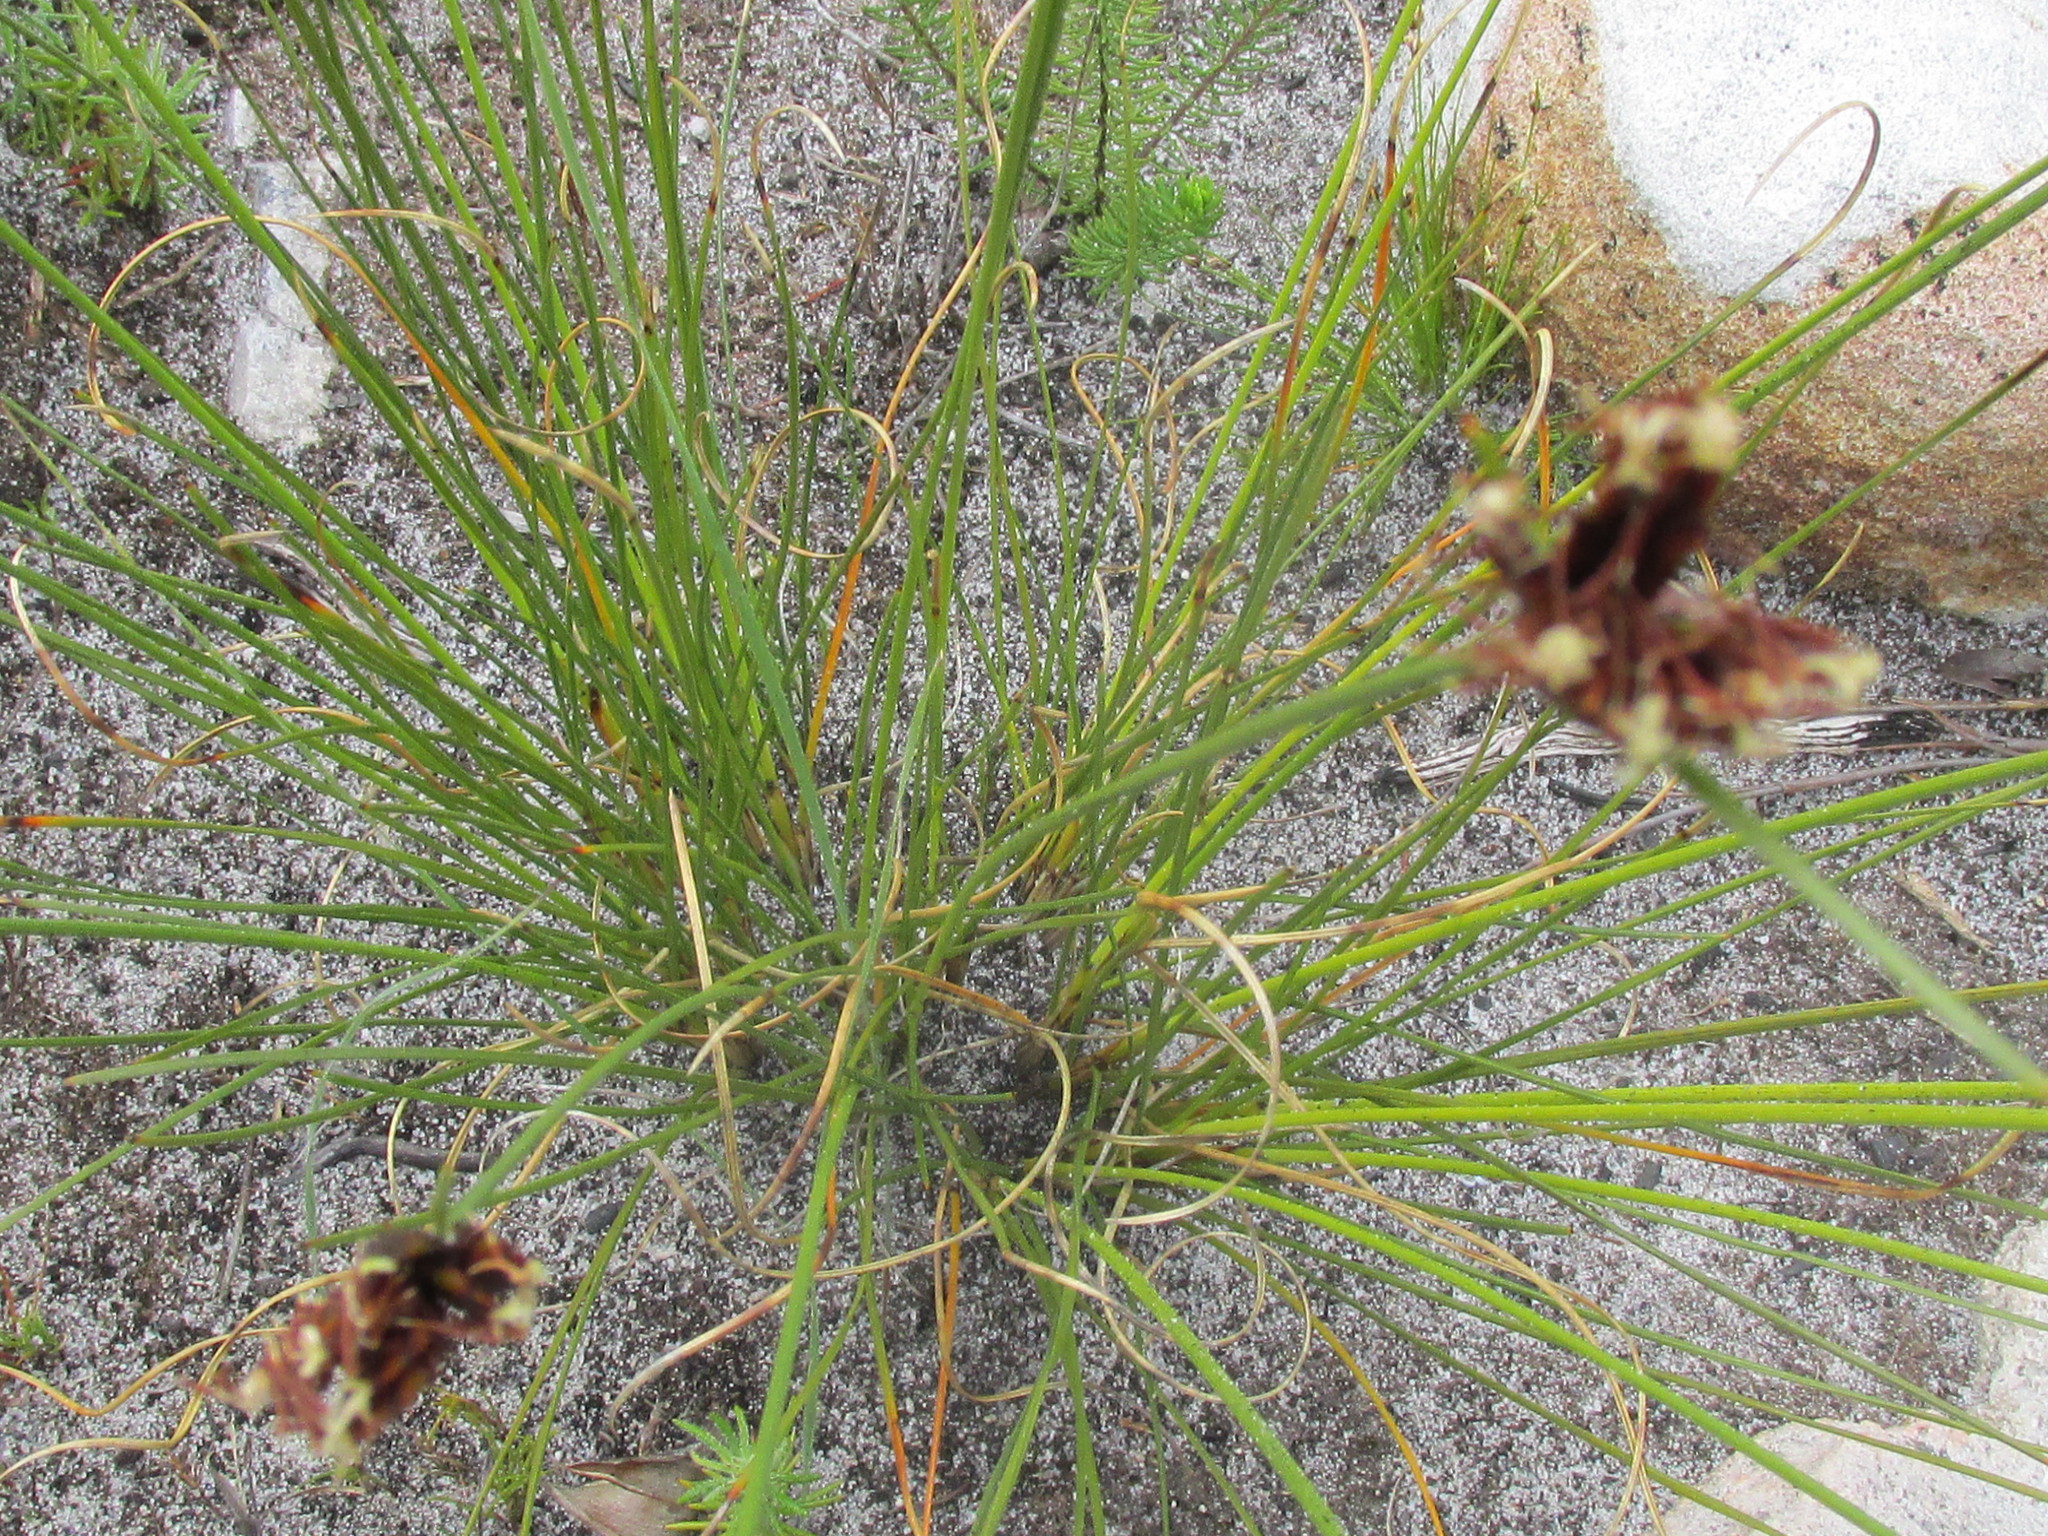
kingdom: Plantae
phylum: Tracheophyta
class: Liliopsida
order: Poales
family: Cyperaceae
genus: Schoenus
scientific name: Schoenus compar
